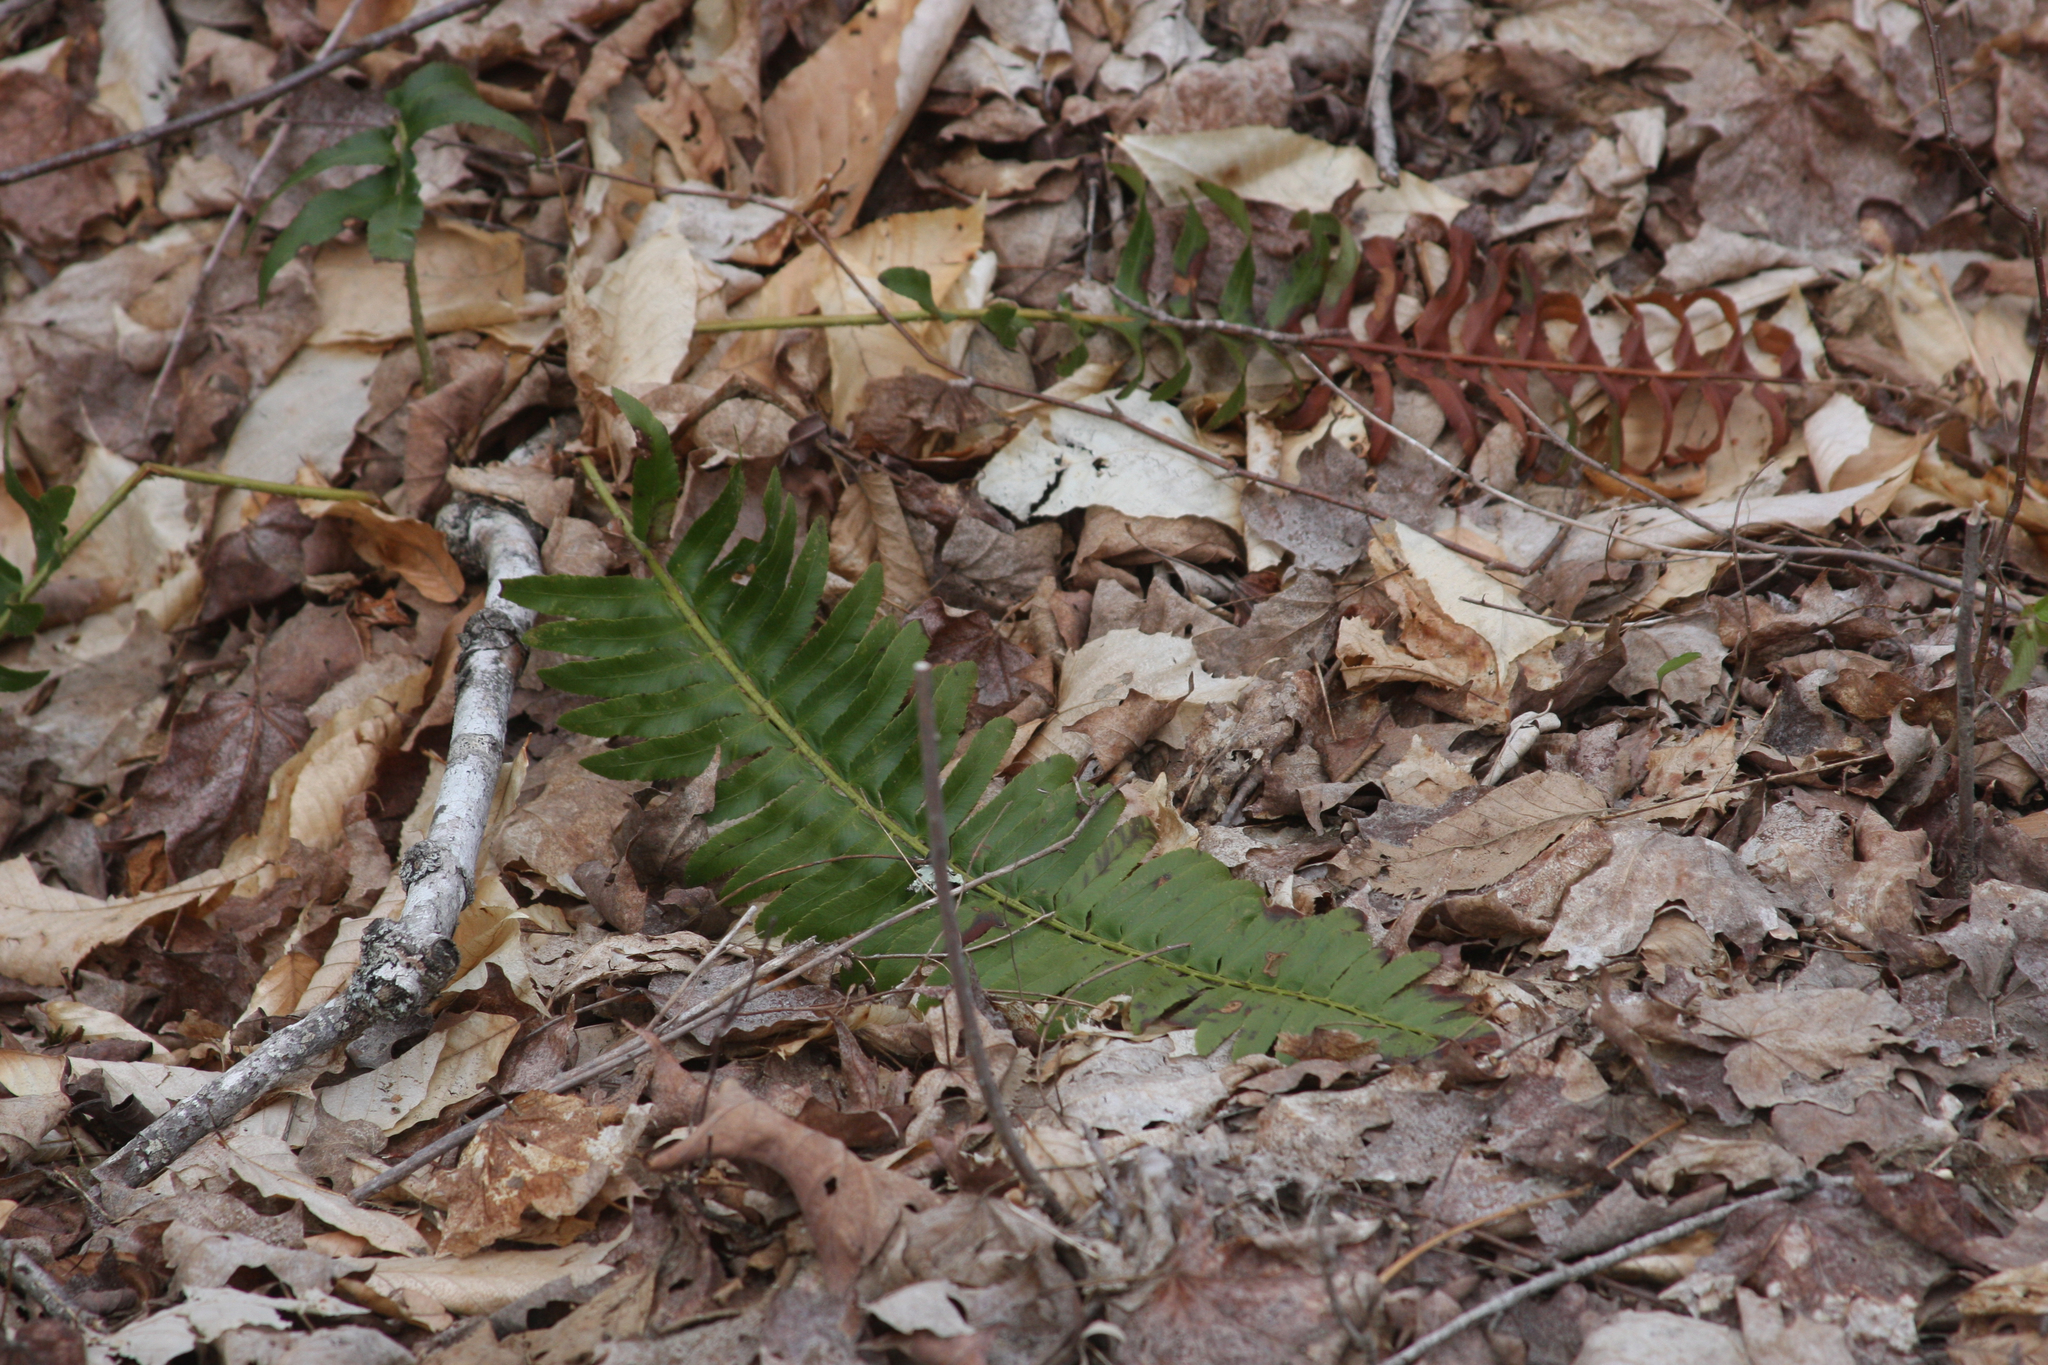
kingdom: Plantae
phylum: Tracheophyta
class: Polypodiopsida
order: Polypodiales
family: Dryopteridaceae
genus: Polystichum
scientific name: Polystichum acrostichoides
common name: Christmas fern
